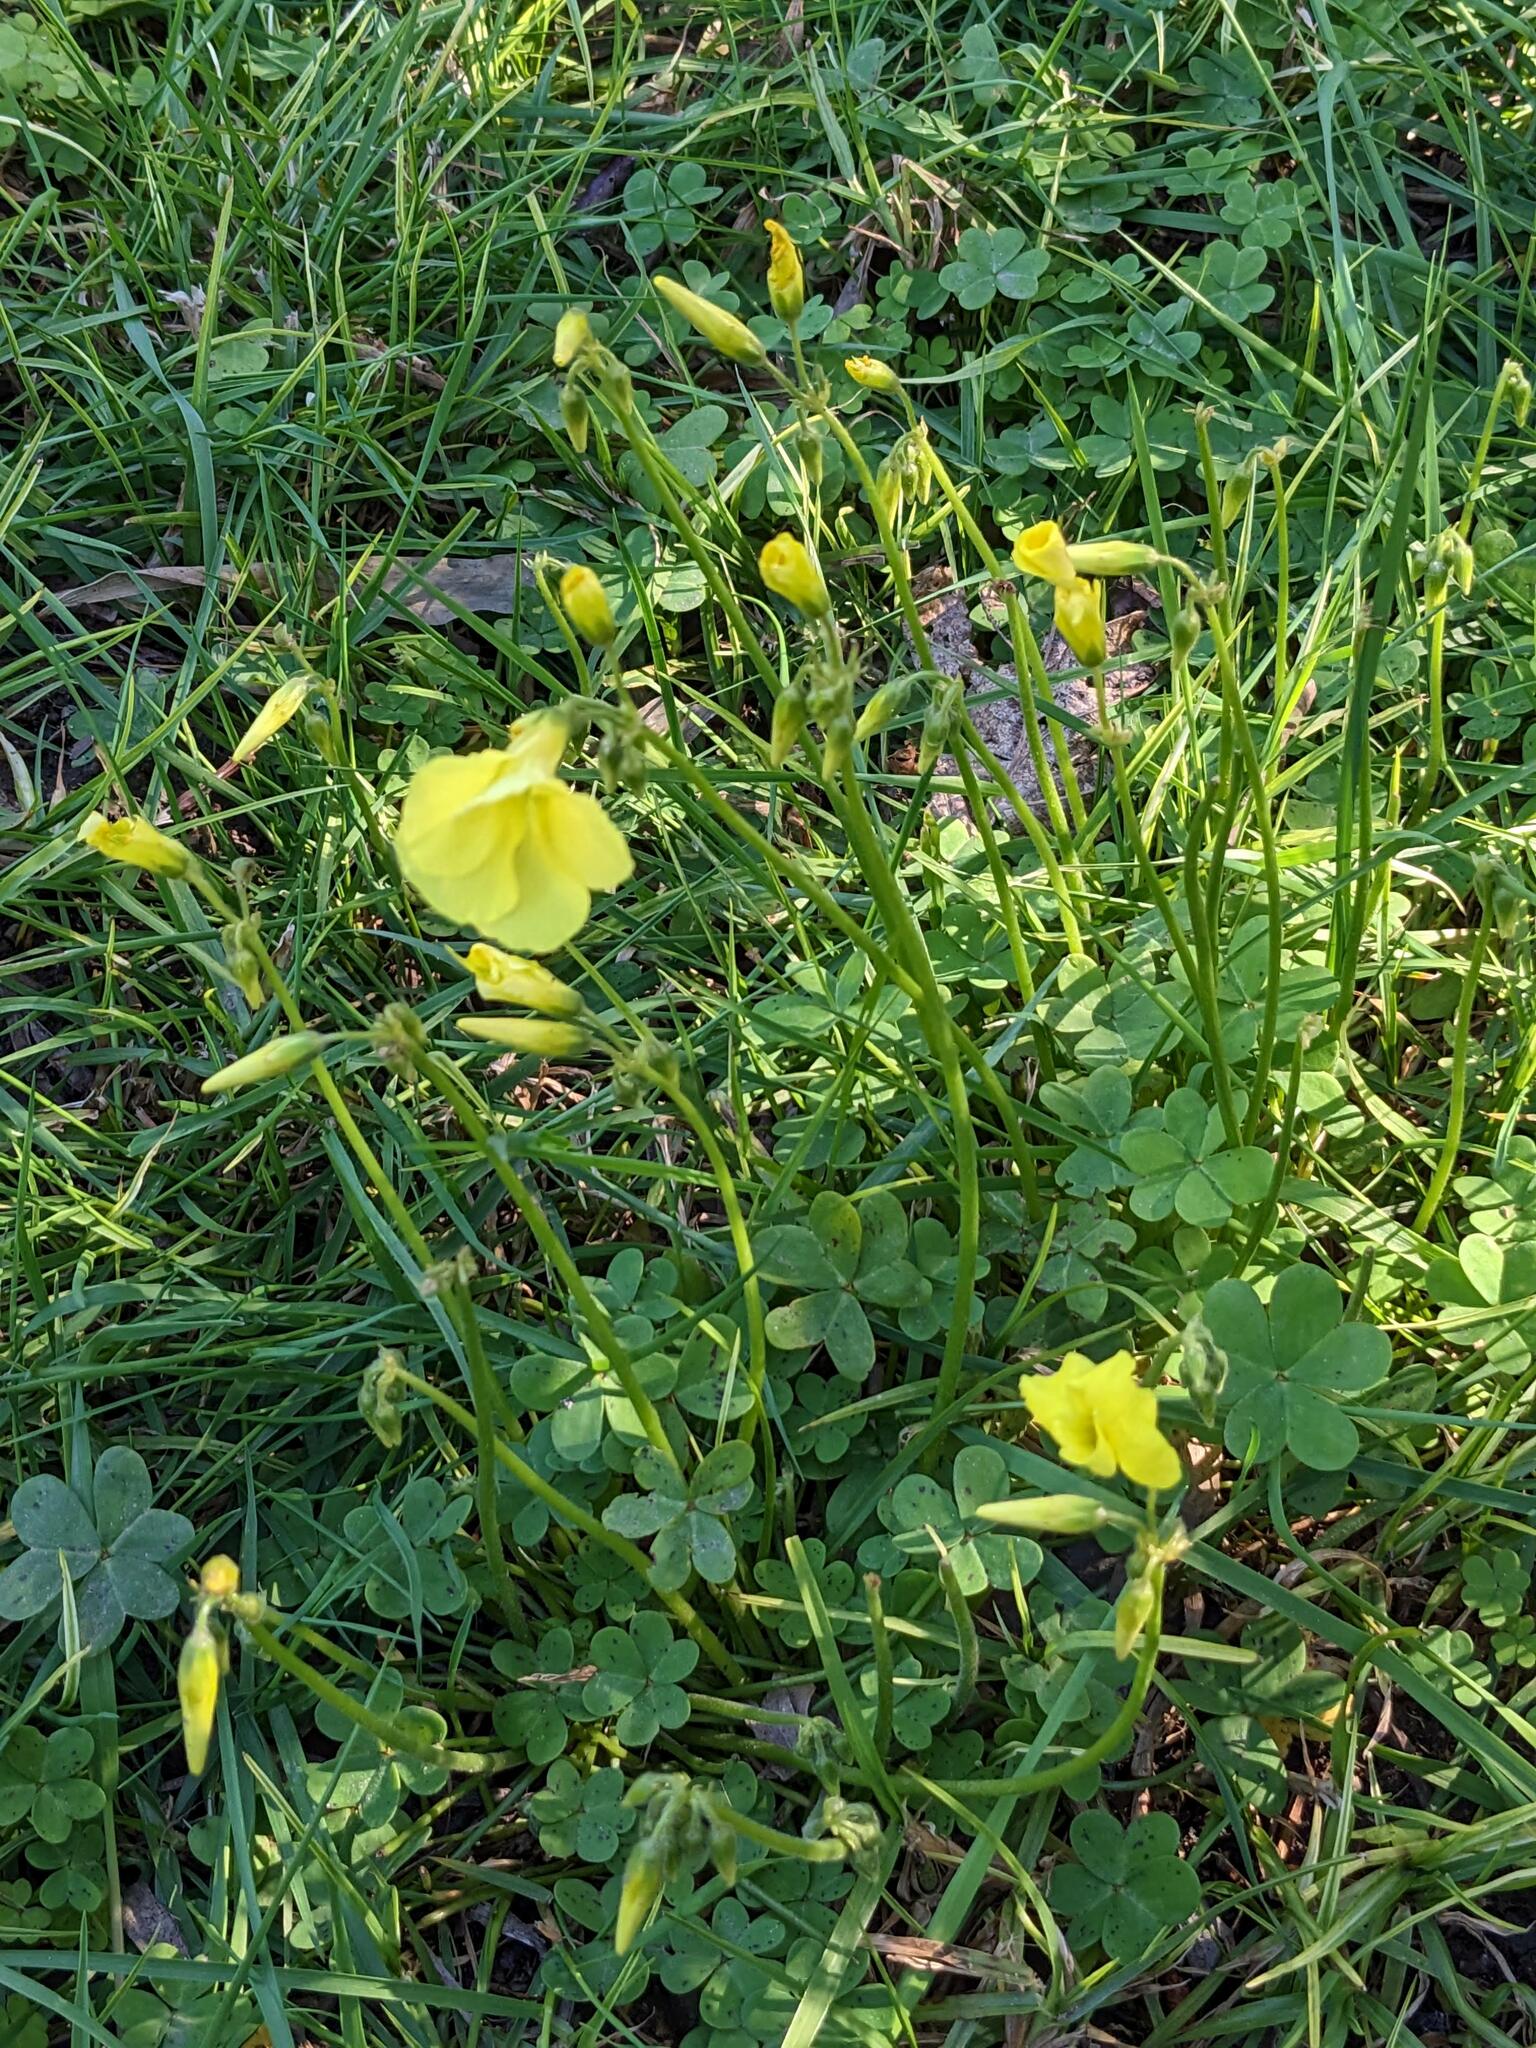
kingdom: Plantae
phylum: Tracheophyta
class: Magnoliopsida
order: Oxalidales
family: Oxalidaceae
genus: Oxalis
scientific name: Oxalis pes-caprae
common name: Bermuda-buttercup
